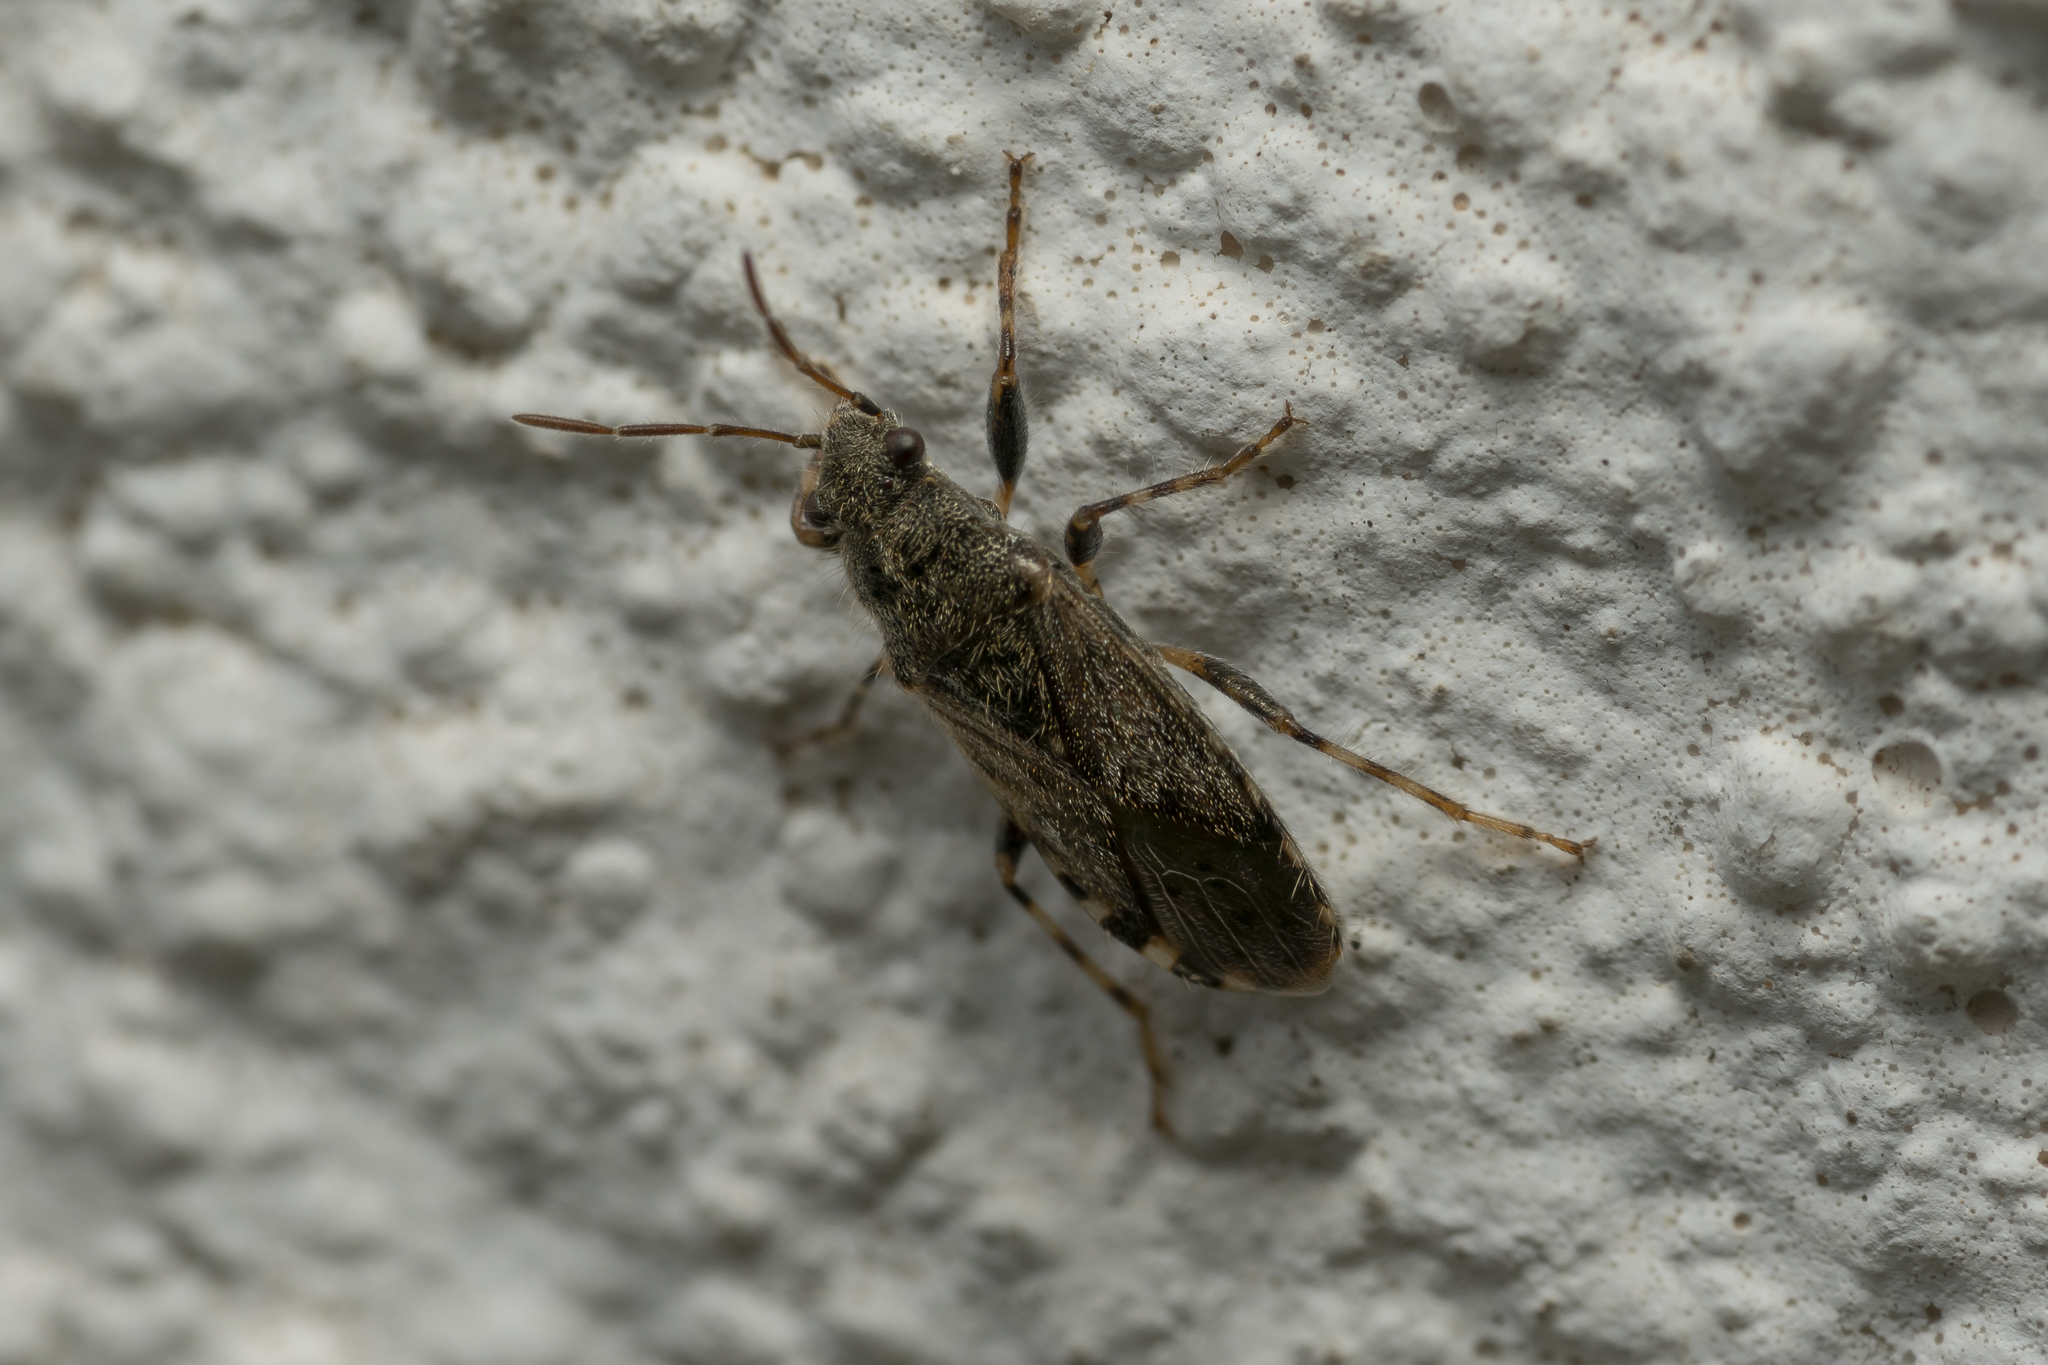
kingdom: Animalia
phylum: Arthropoda
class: Insecta
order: Hemiptera
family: Heterogastridae
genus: Heterogaster
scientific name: Heterogaster urticae
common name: Seed bug
